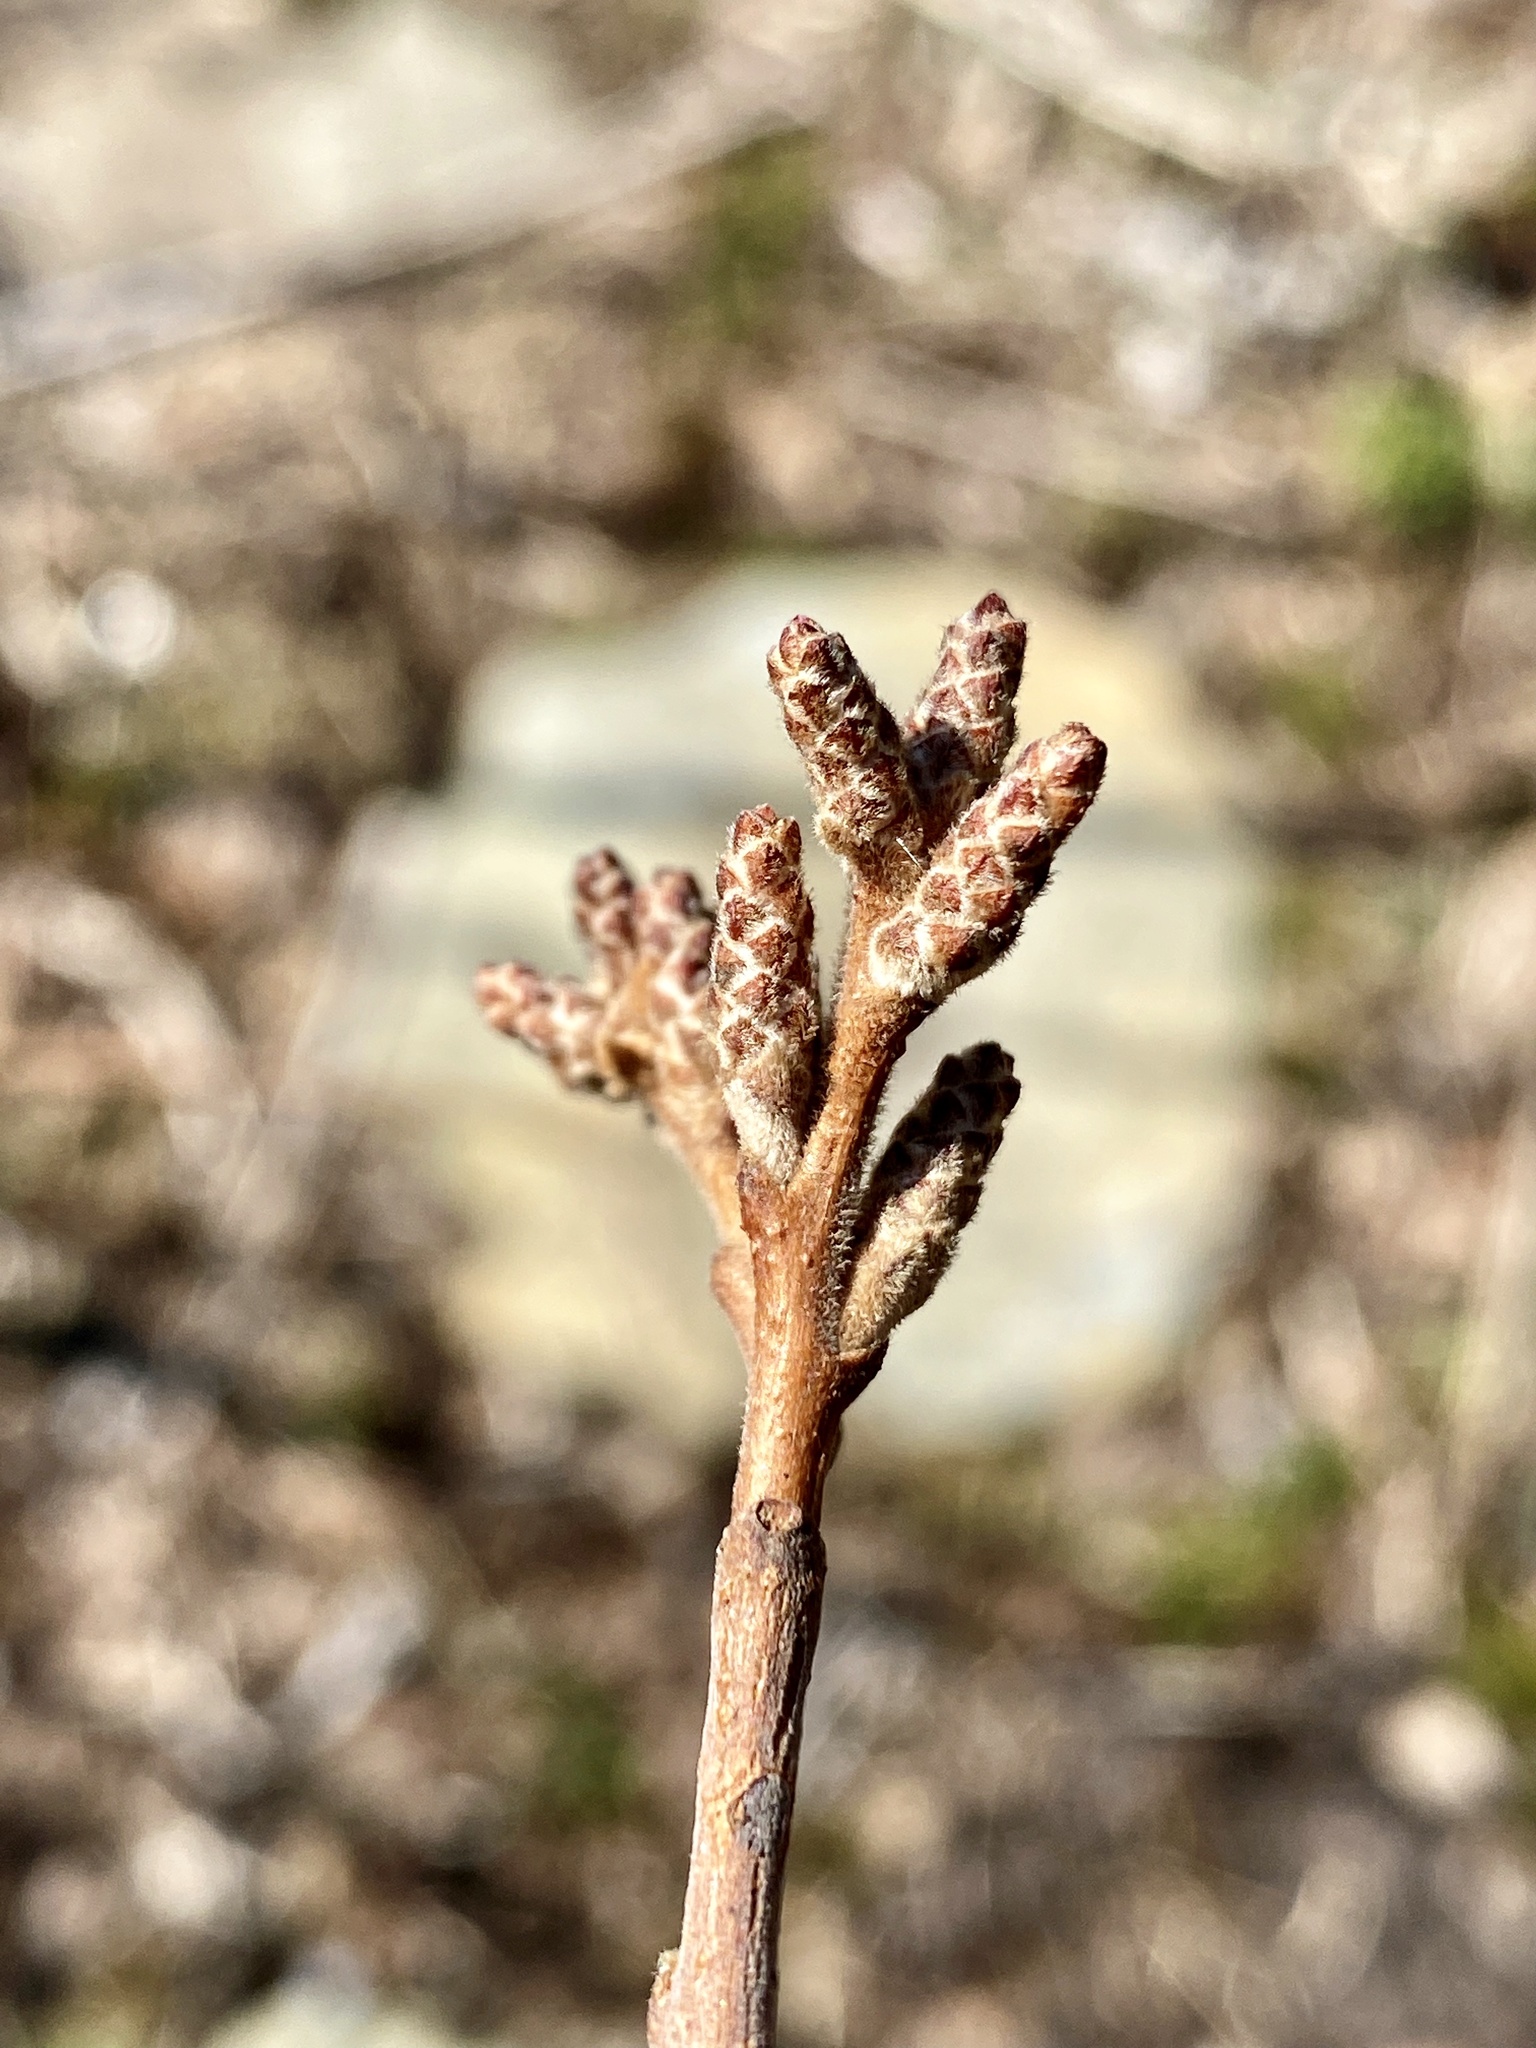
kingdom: Plantae
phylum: Tracheophyta
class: Magnoliopsida
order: Sapindales
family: Anacardiaceae
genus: Rhus
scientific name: Rhus aromatica
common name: Aromatic sumac
